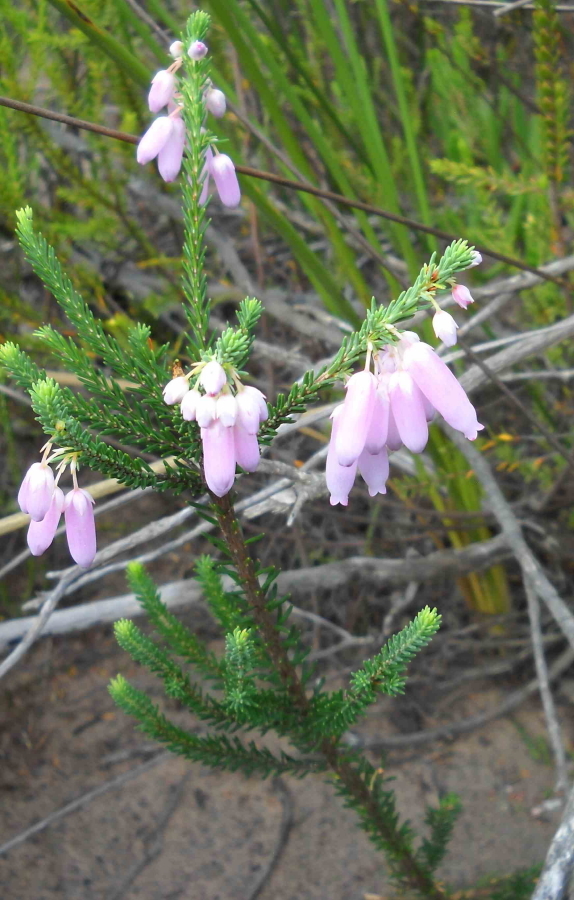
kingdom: Plantae
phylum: Tracheophyta
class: Magnoliopsida
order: Ericales
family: Ericaceae
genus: Erica
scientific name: Erica bauera
